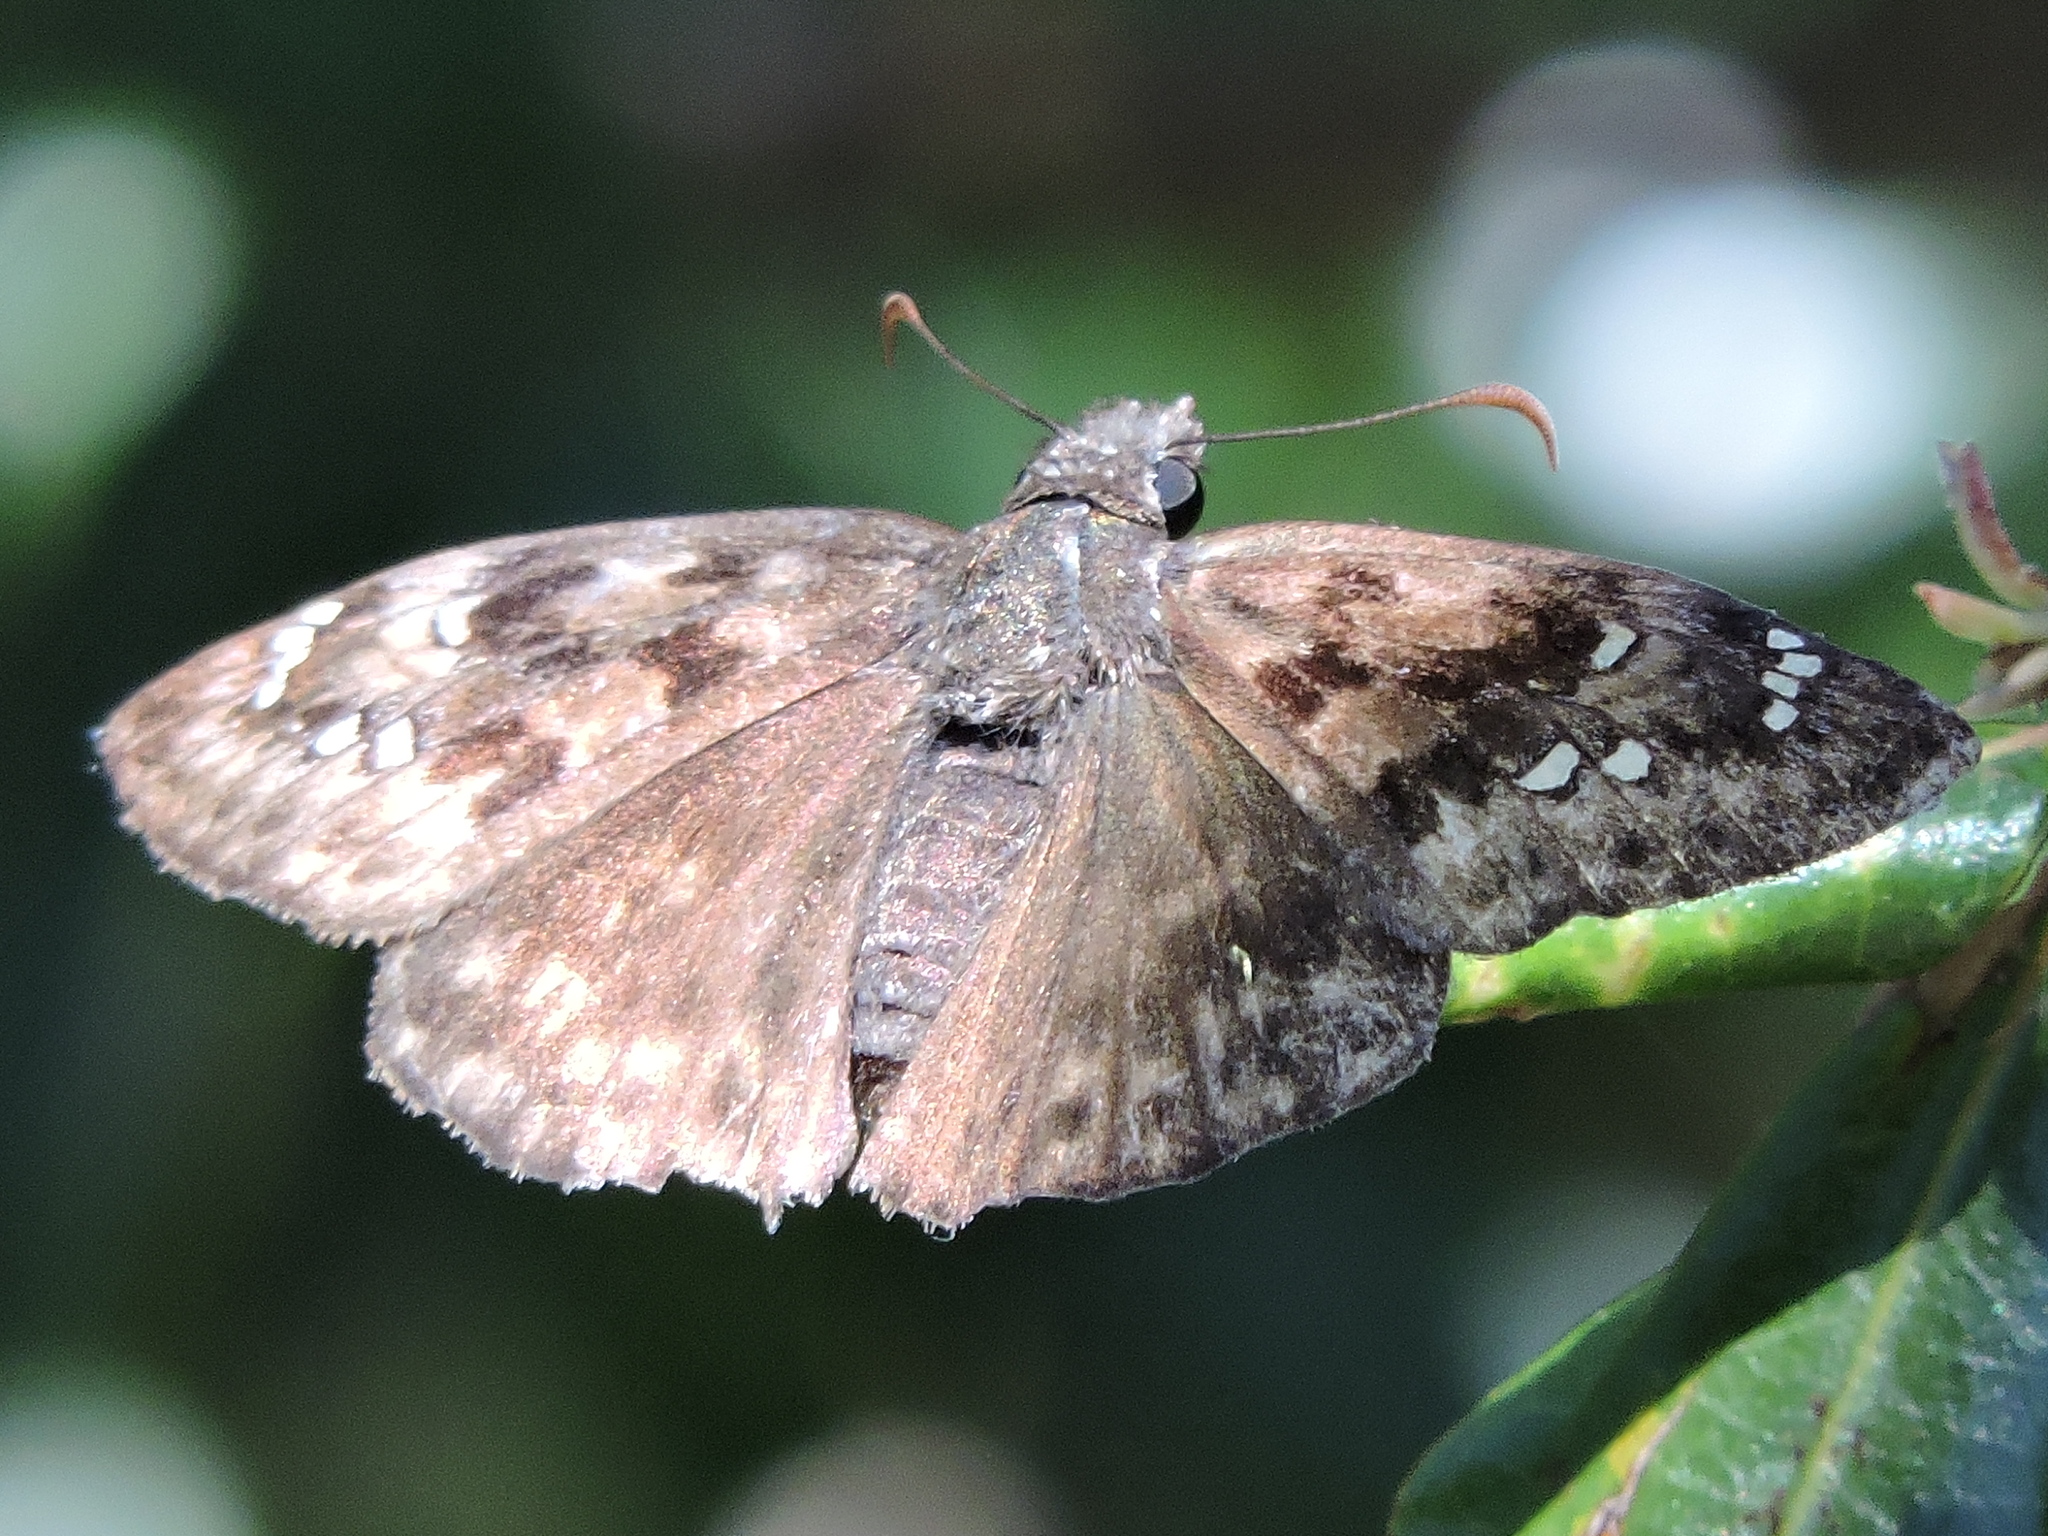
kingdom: Animalia
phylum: Arthropoda
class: Insecta
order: Lepidoptera
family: Hesperiidae
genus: Erynnis
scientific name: Erynnis juvenalis
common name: Juvenal's duskywing
